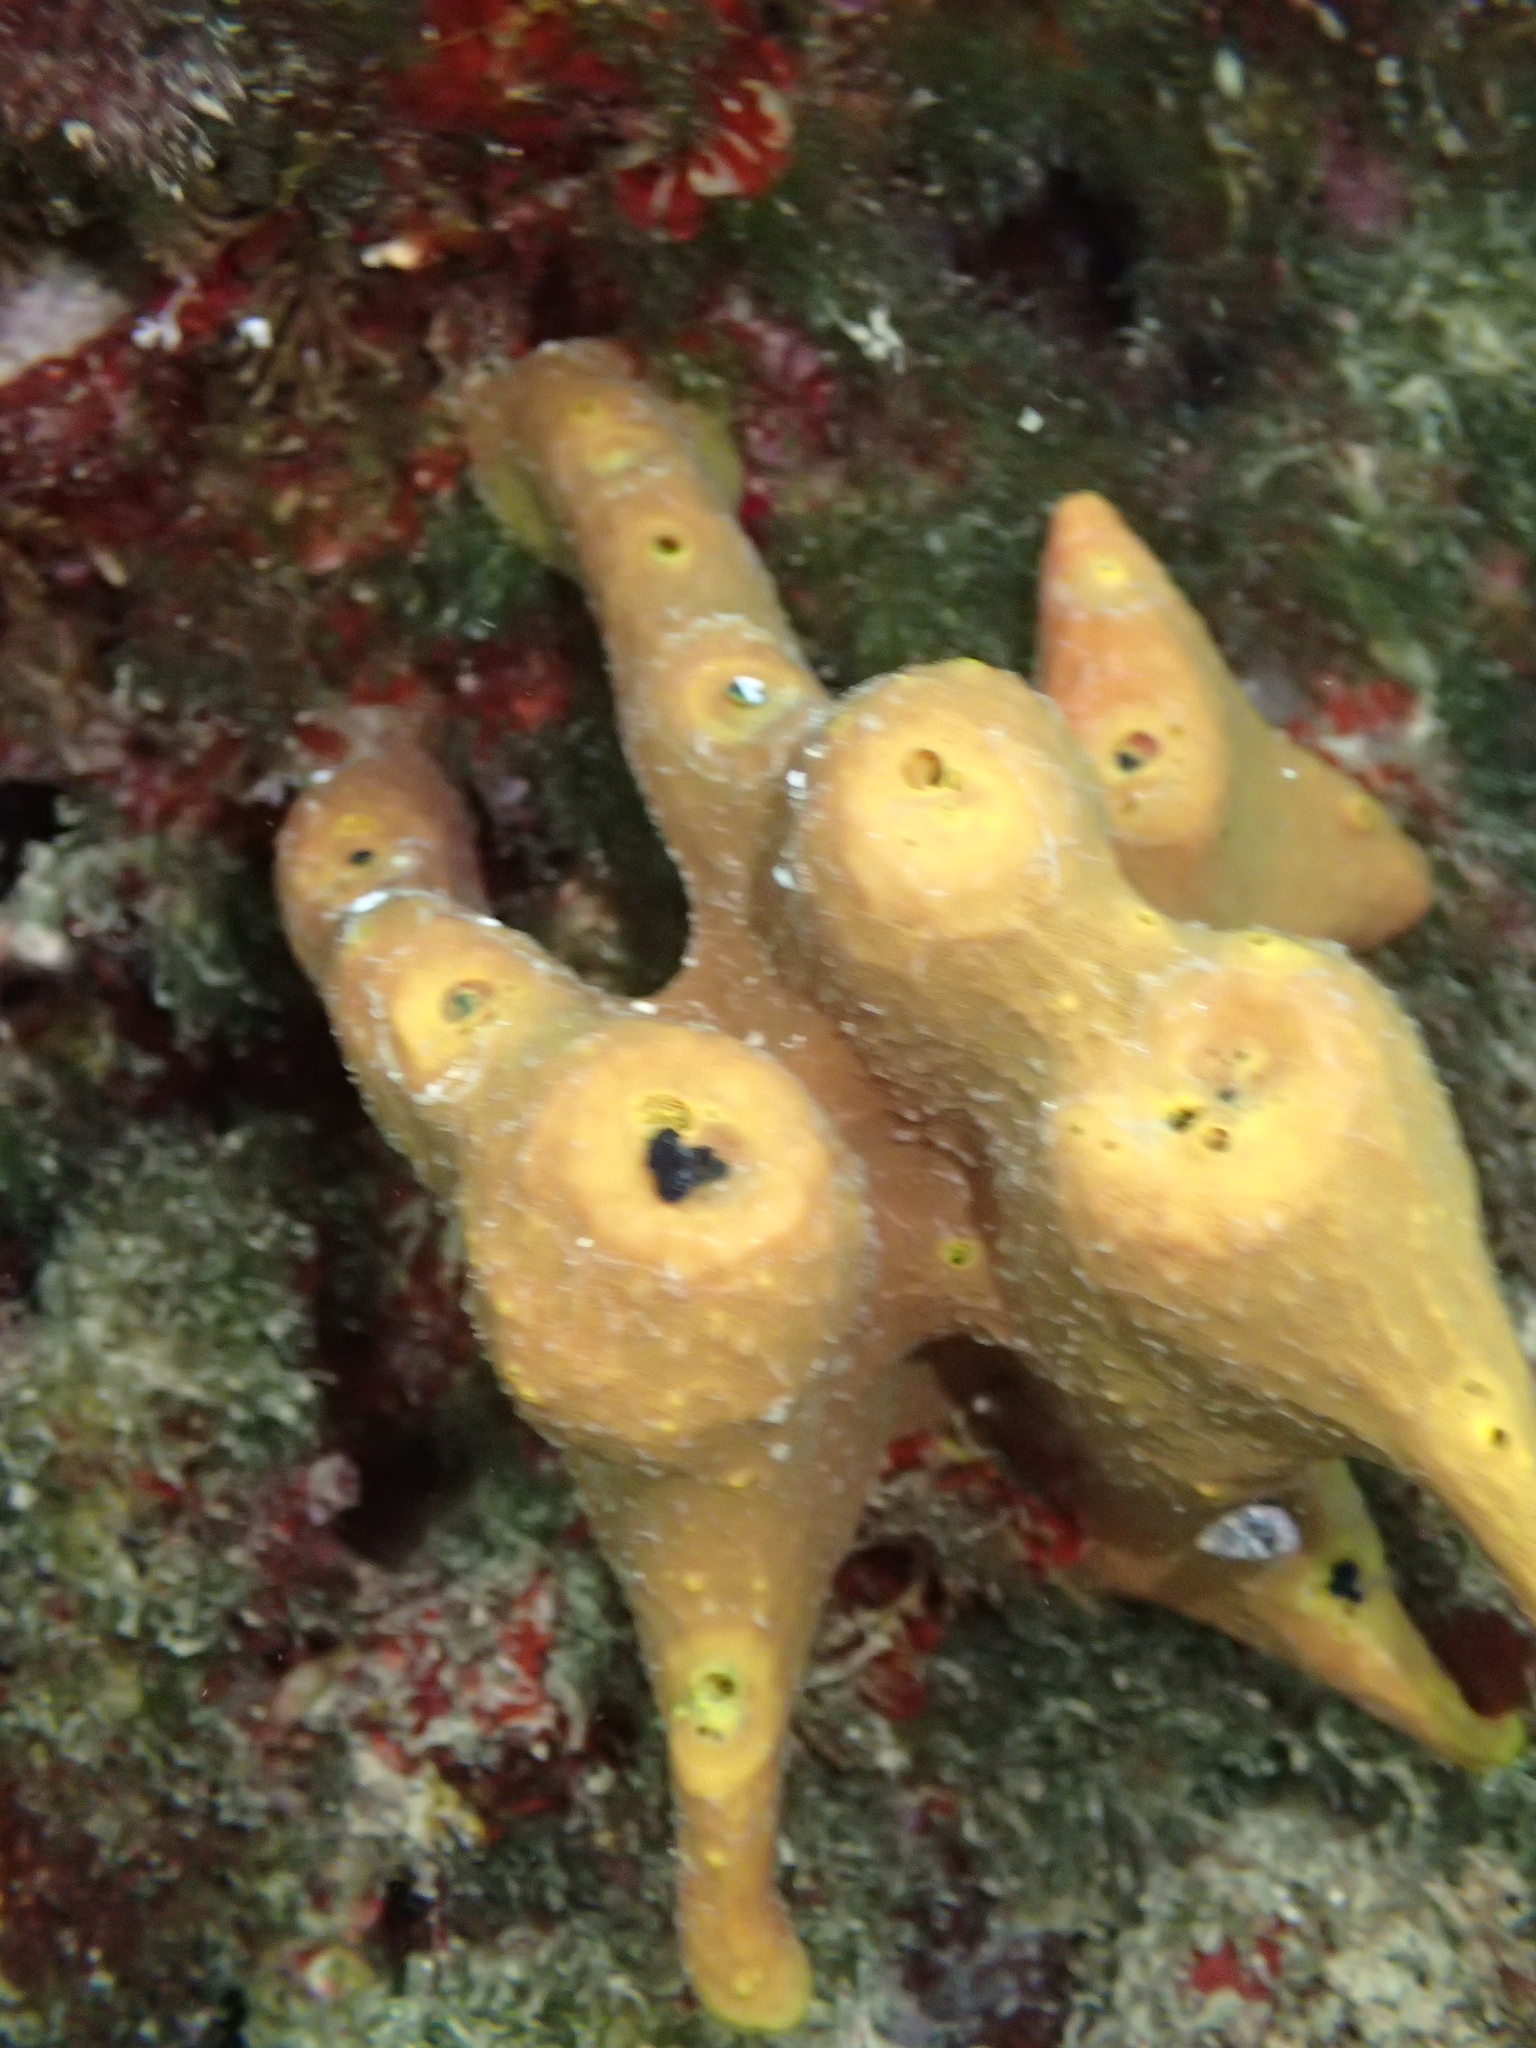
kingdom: Animalia
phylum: Porifera
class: Demospongiae
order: Verongiida
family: Aplysinidae
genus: Aplysina
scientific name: Aplysina aerophoba
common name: Aureate sponge
